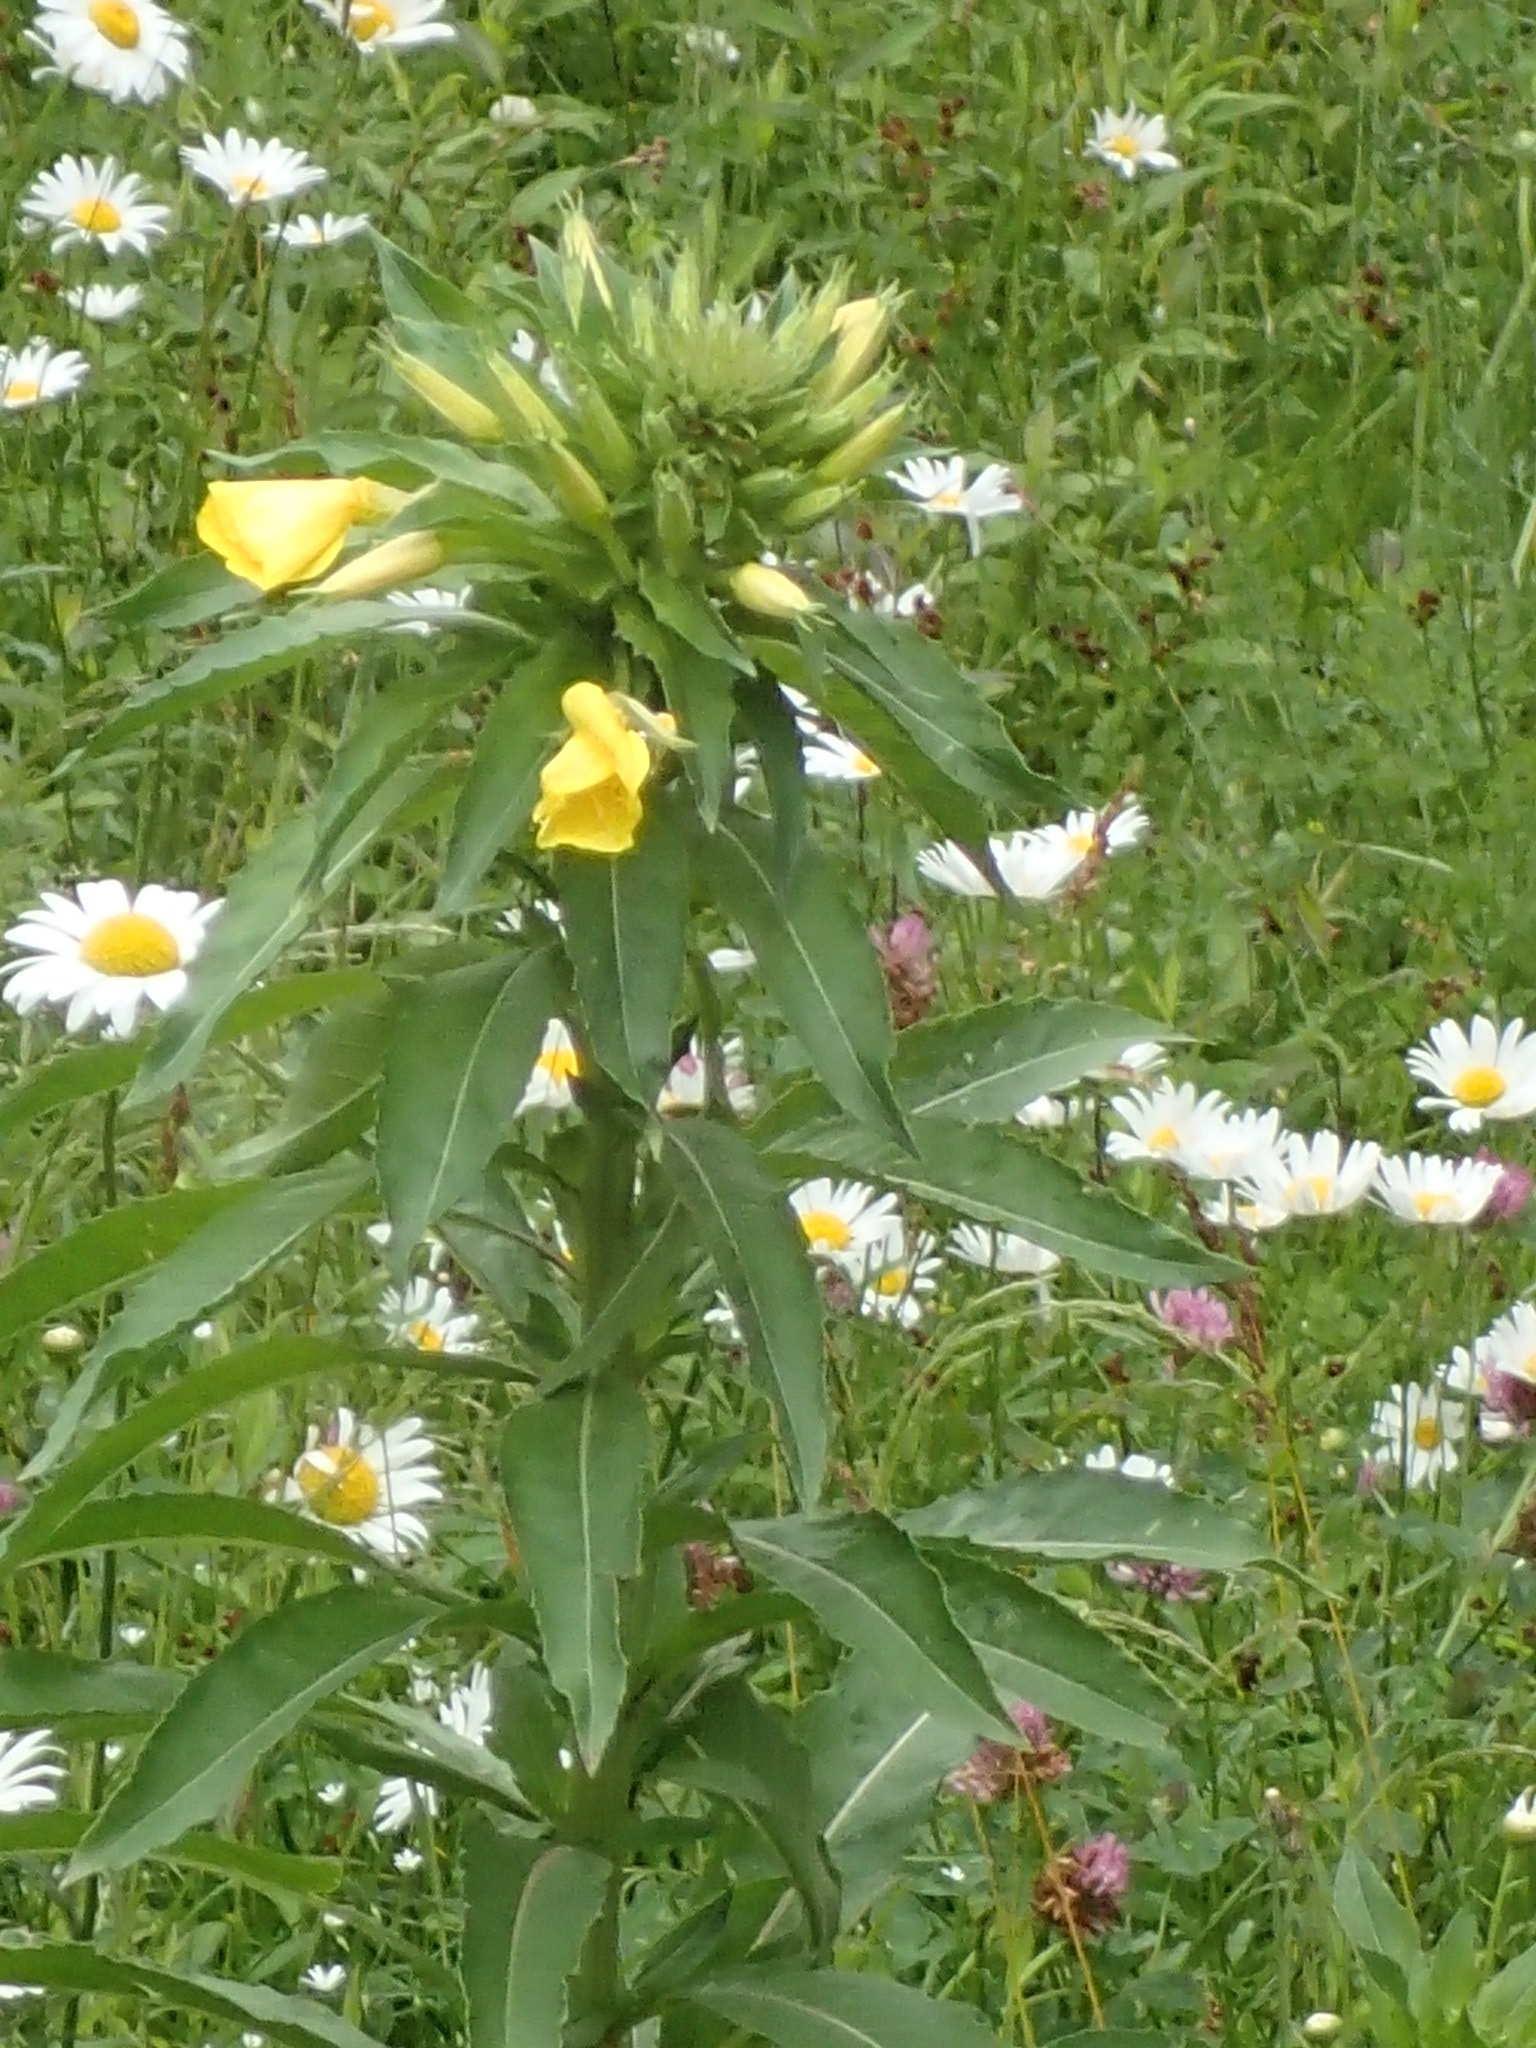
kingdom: Plantae
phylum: Tracheophyta
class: Magnoliopsida
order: Myrtales
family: Onagraceae
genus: Oenothera
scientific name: Oenothera biennis
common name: Common evening-primrose
